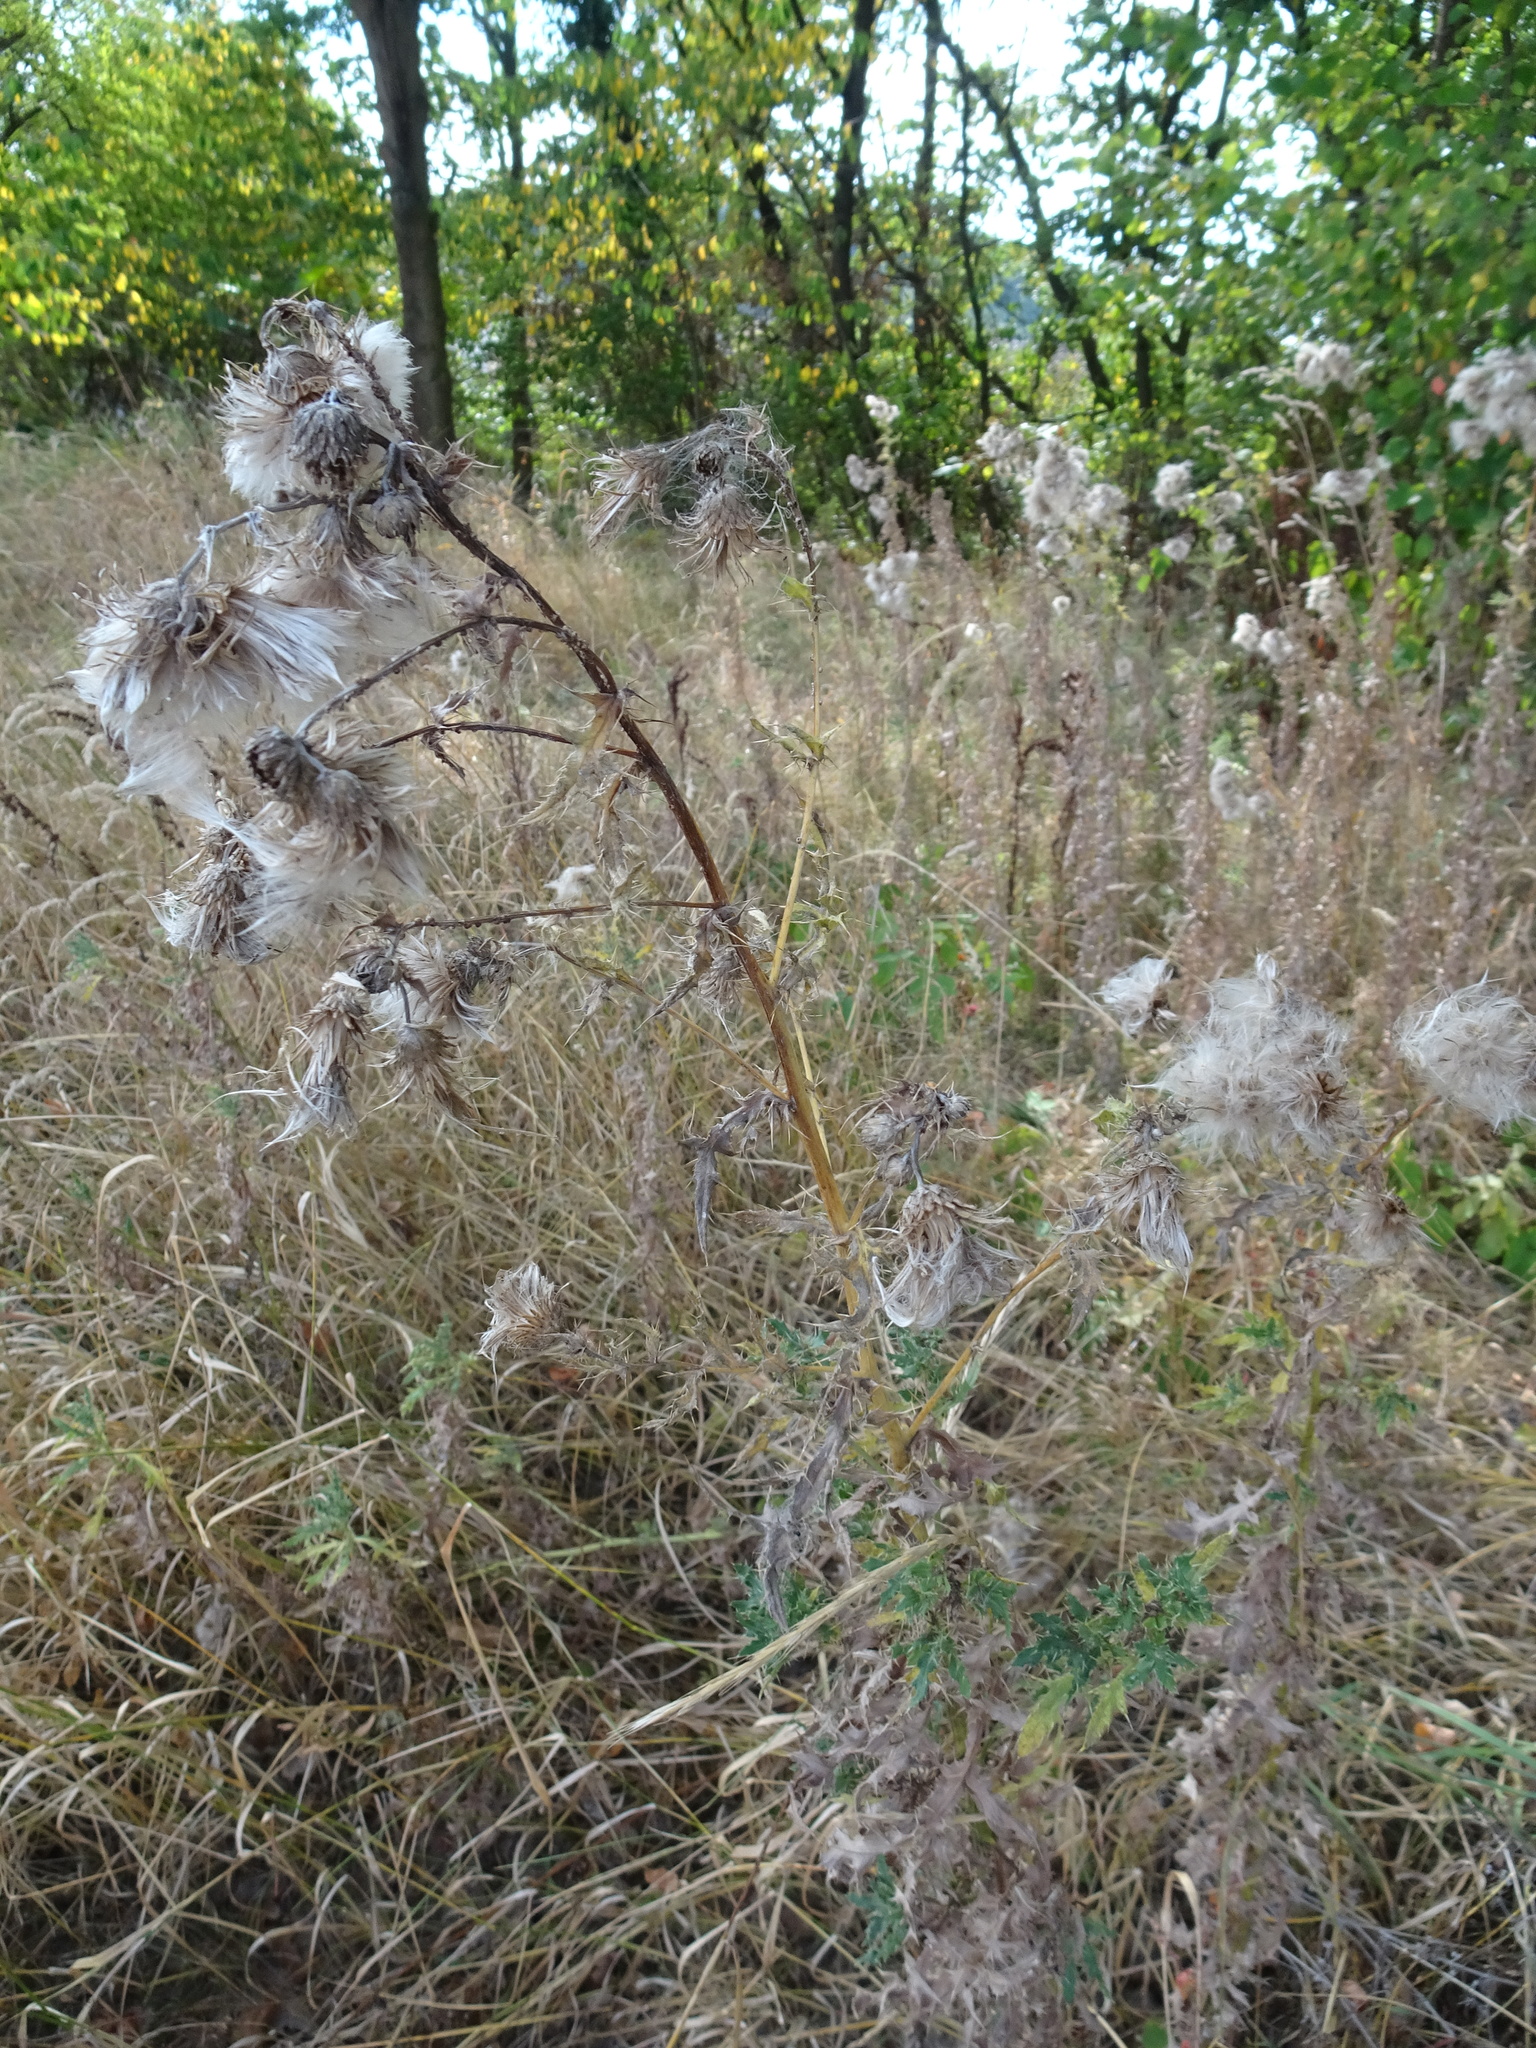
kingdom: Plantae
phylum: Tracheophyta
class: Magnoliopsida
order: Asterales
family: Asteraceae
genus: Cirsium
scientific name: Cirsium arvense
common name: Creeping thistle
